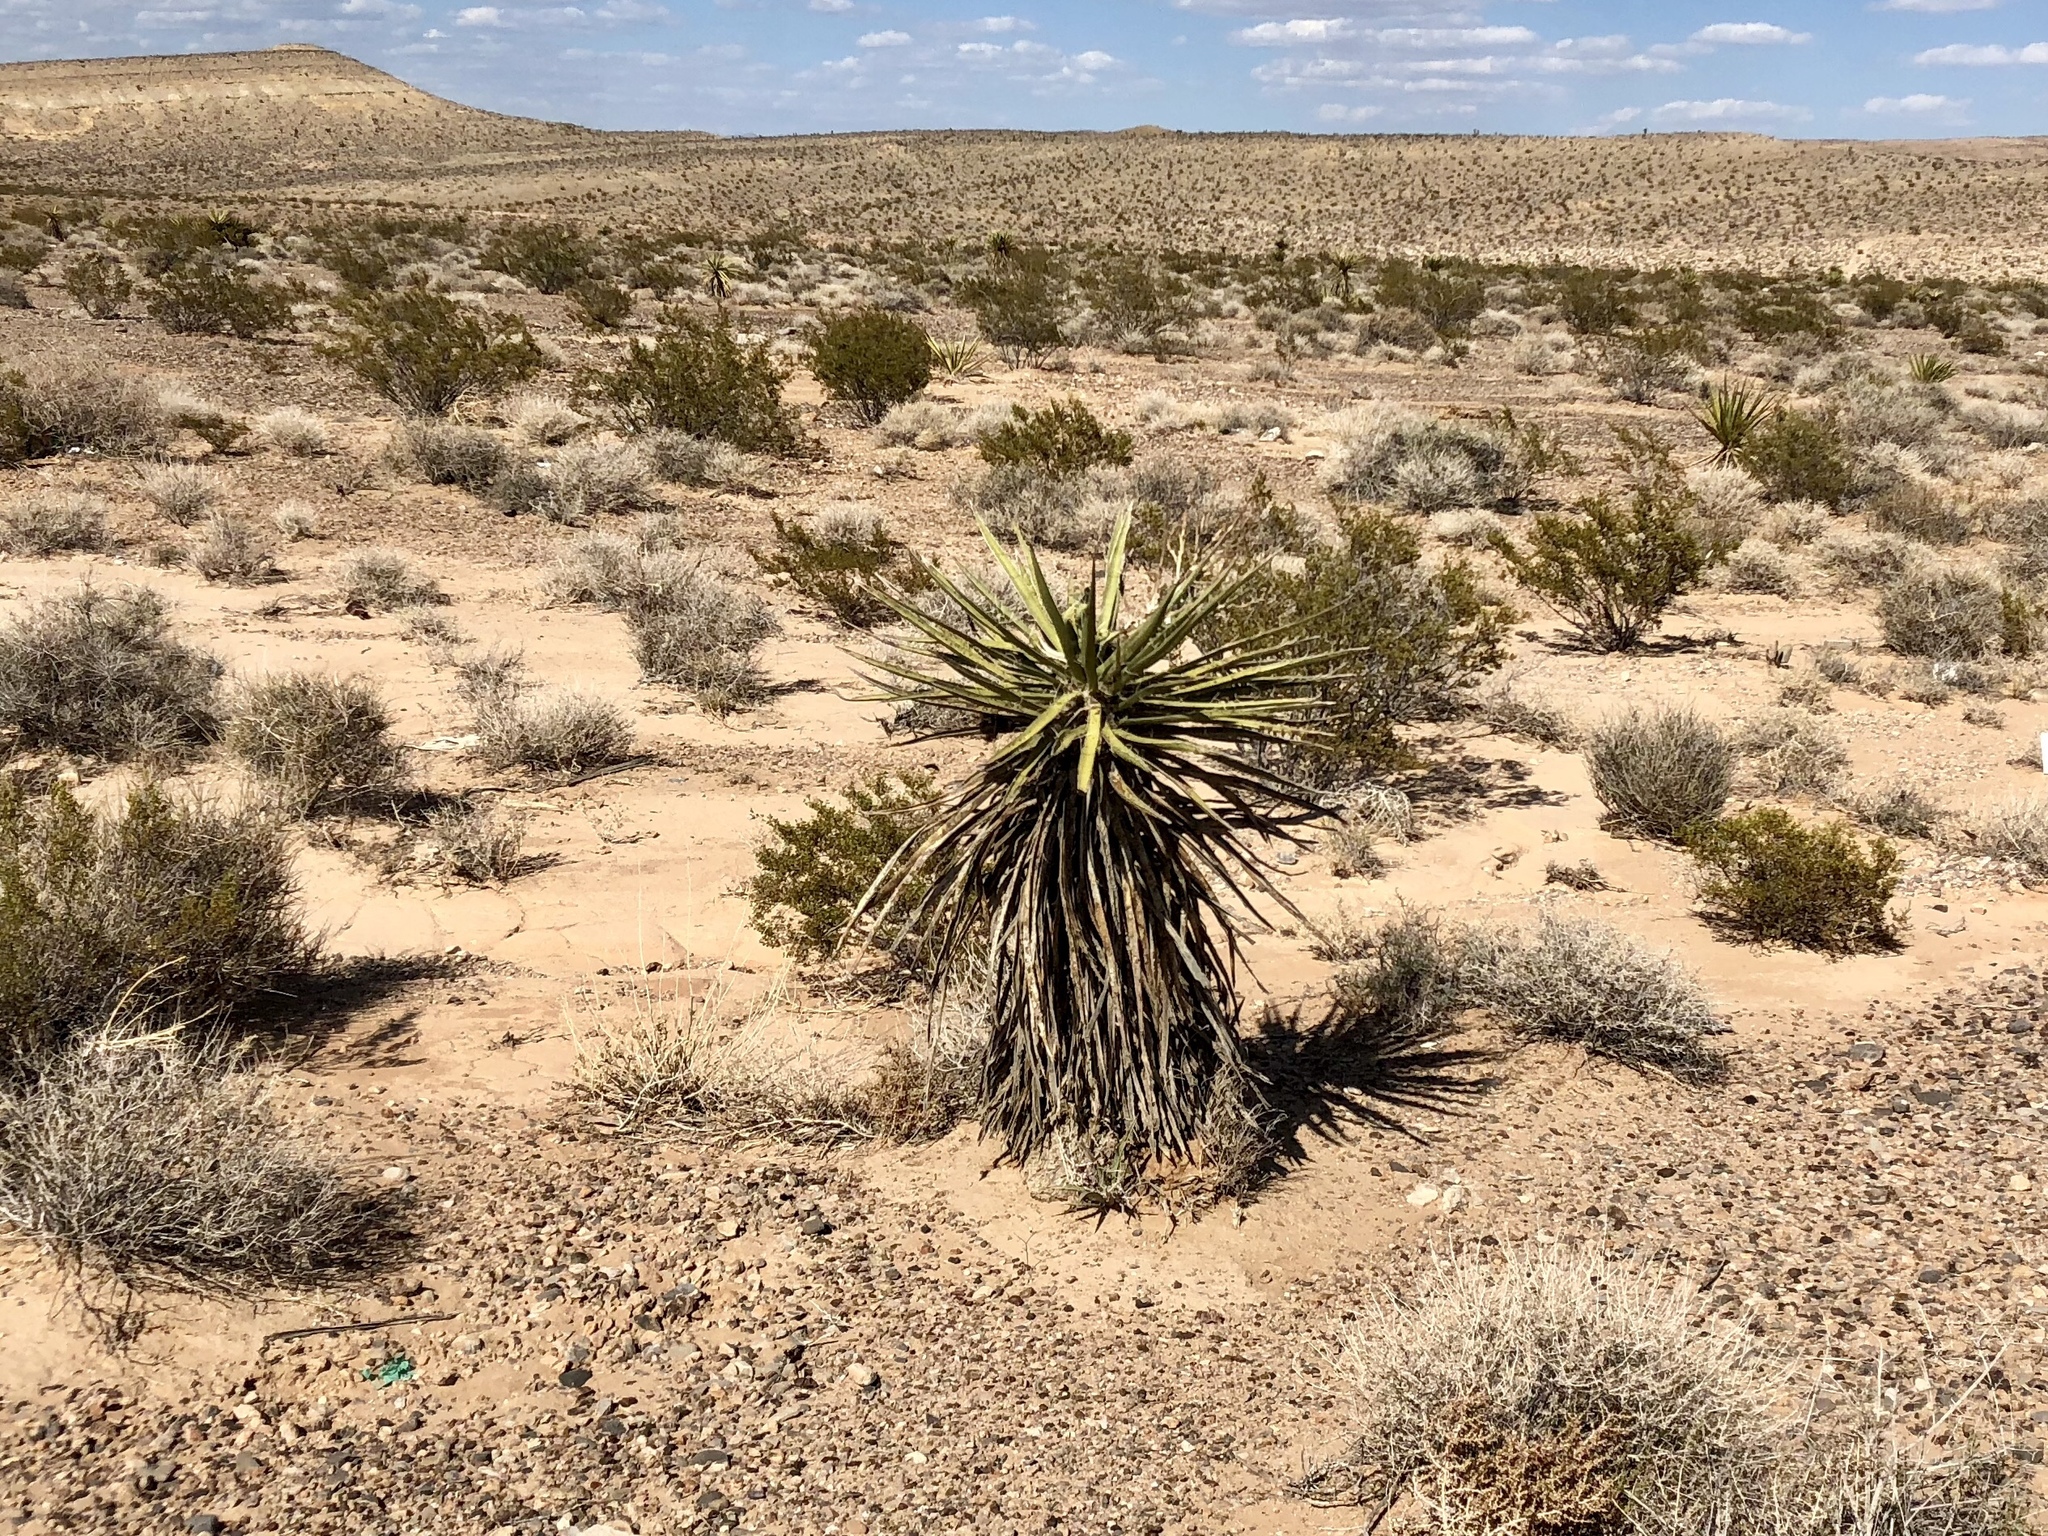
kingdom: Plantae
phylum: Tracheophyta
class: Liliopsida
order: Asparagales
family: Asparagaceae
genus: Yucca
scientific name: Yucca schidigera
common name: Mojave yucca
